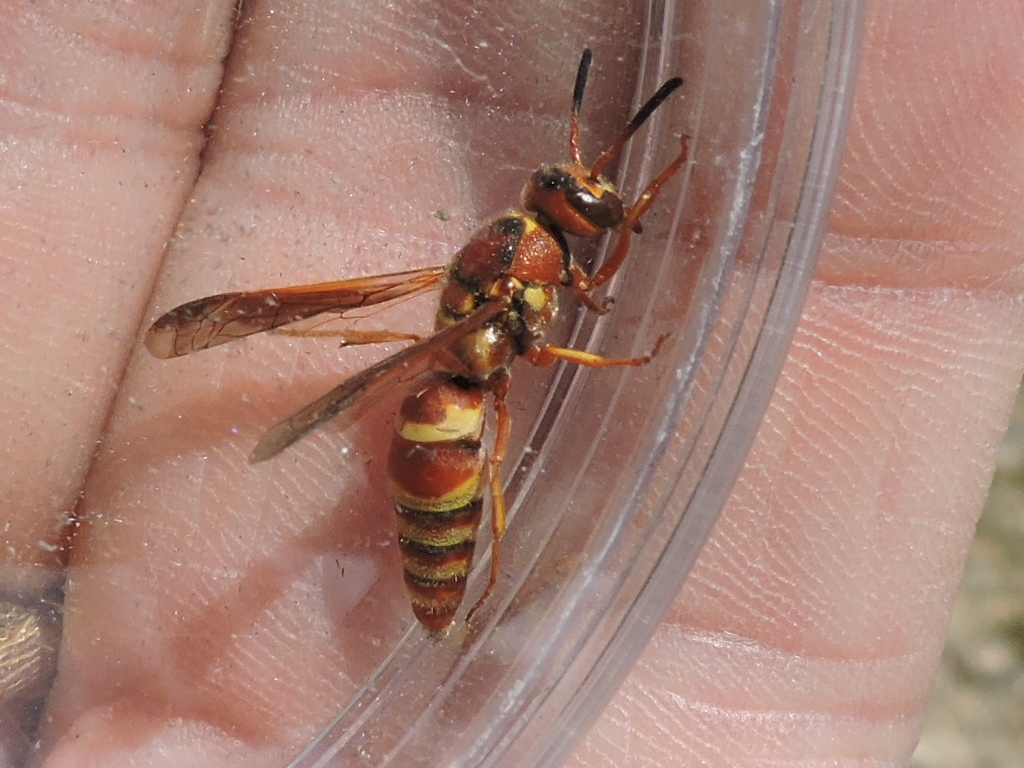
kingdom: Animalia
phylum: Arthropoda
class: Insecta
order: Hymenoptera
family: Eumenidae
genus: Euodynerus
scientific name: Euodynerus pratensis
